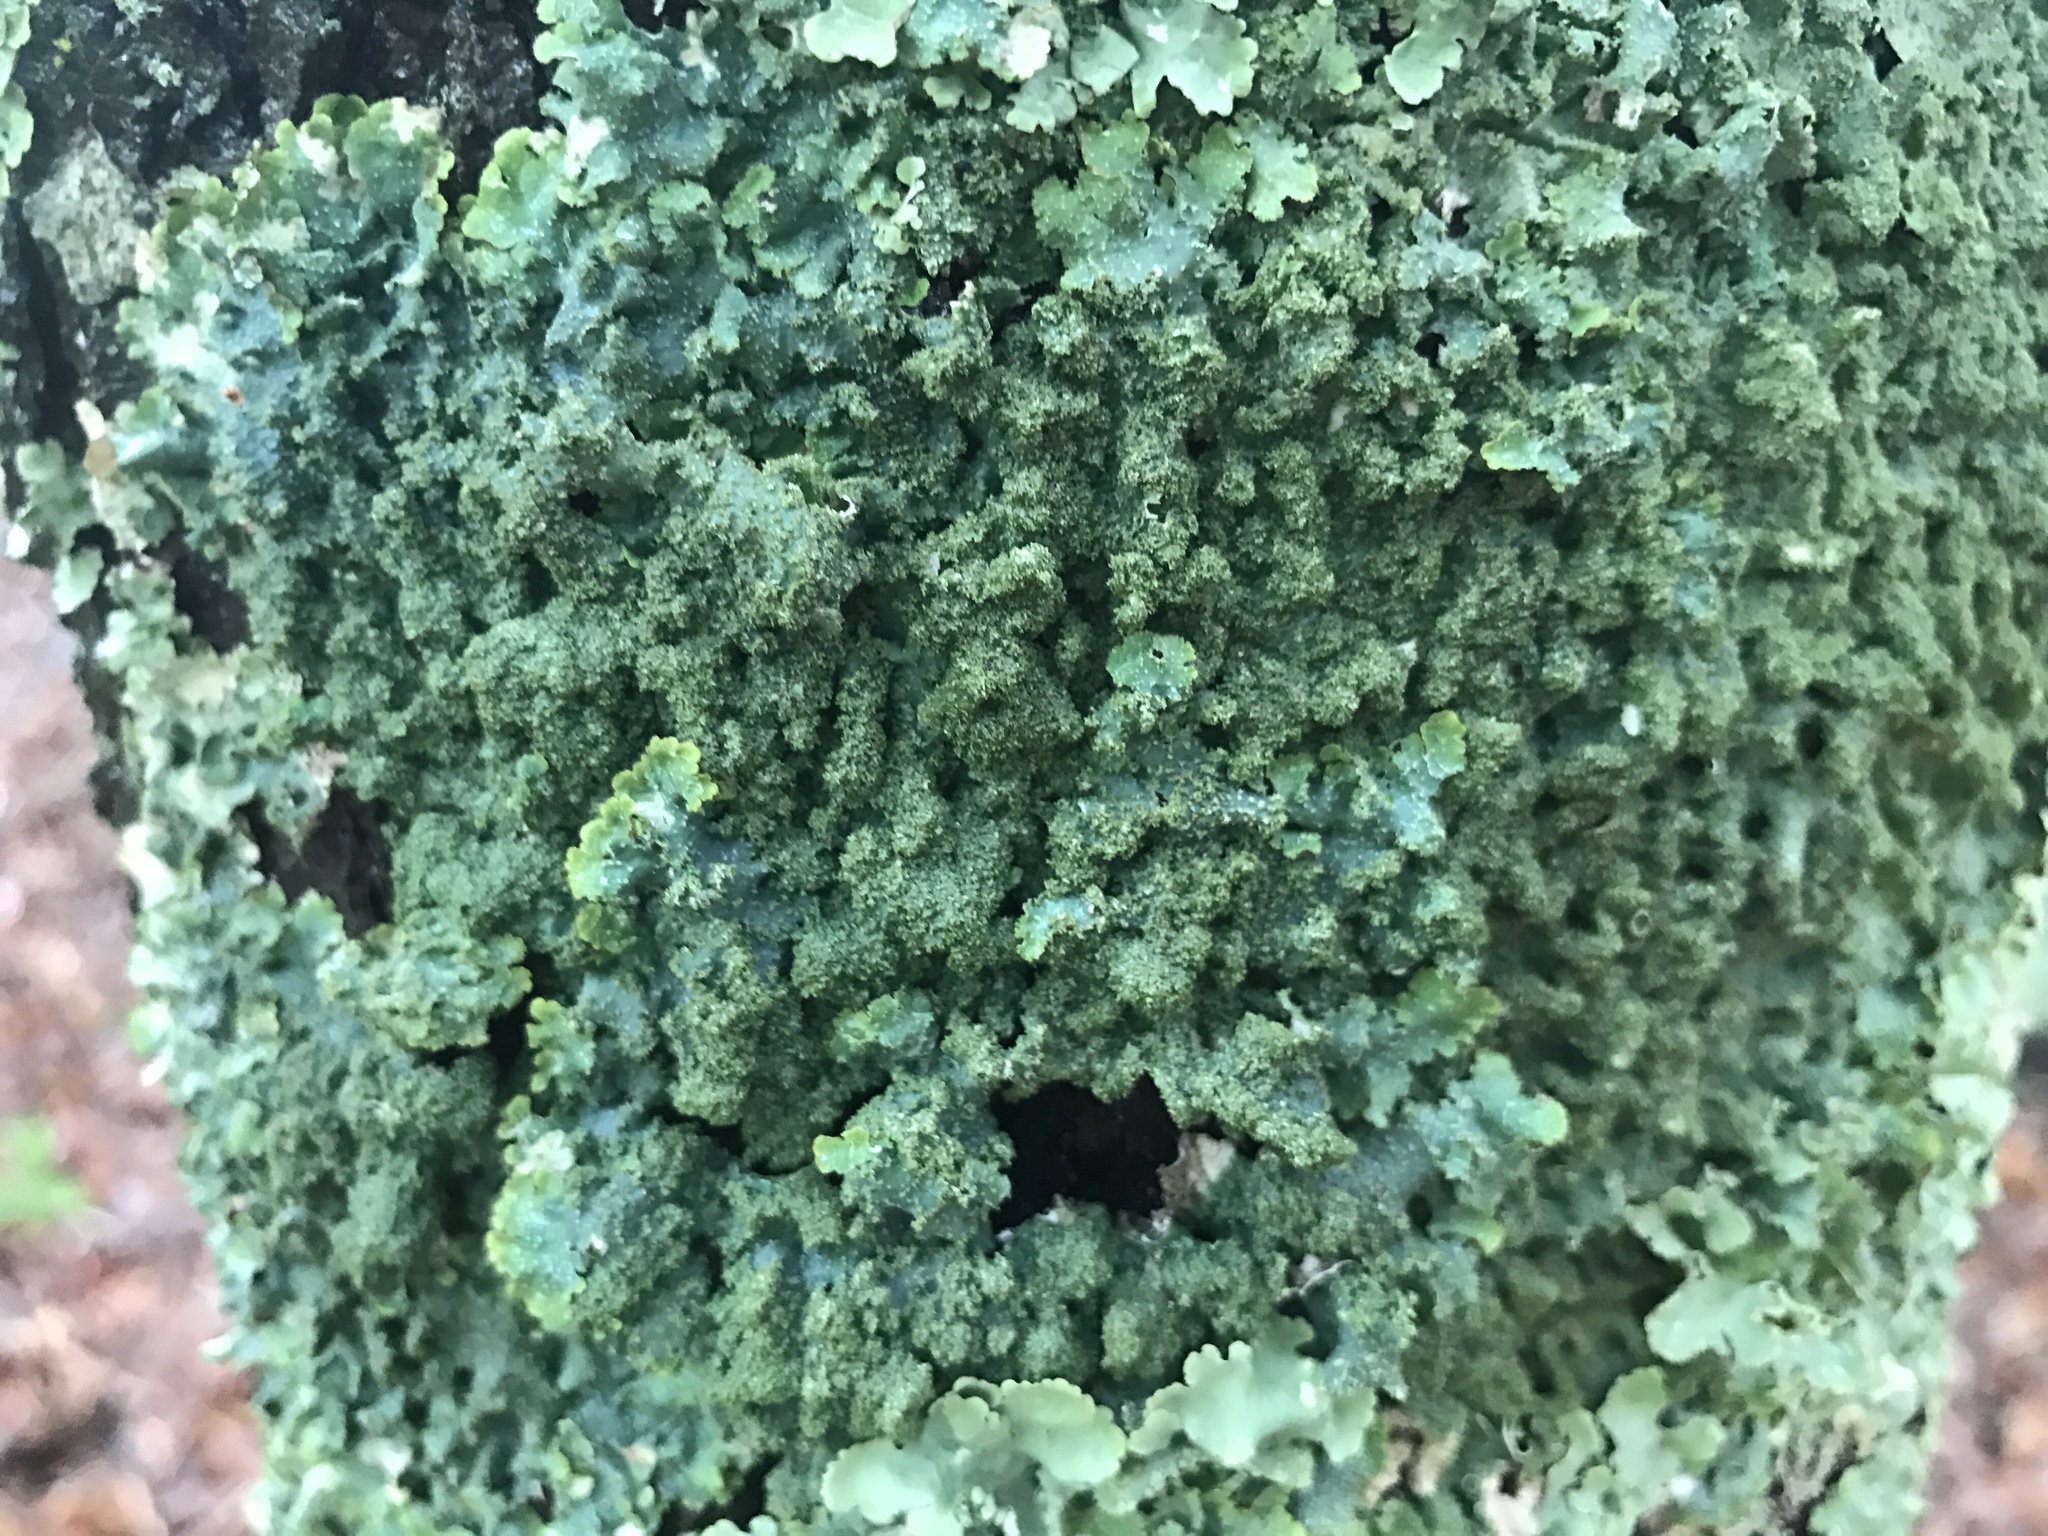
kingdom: Fungi
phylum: Ascomycota
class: Lecanoromycetes
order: Lecanorales
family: Parmeliaceae
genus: Punctelia
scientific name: Punctelia rudecta
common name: Rough speckled shield lichen
